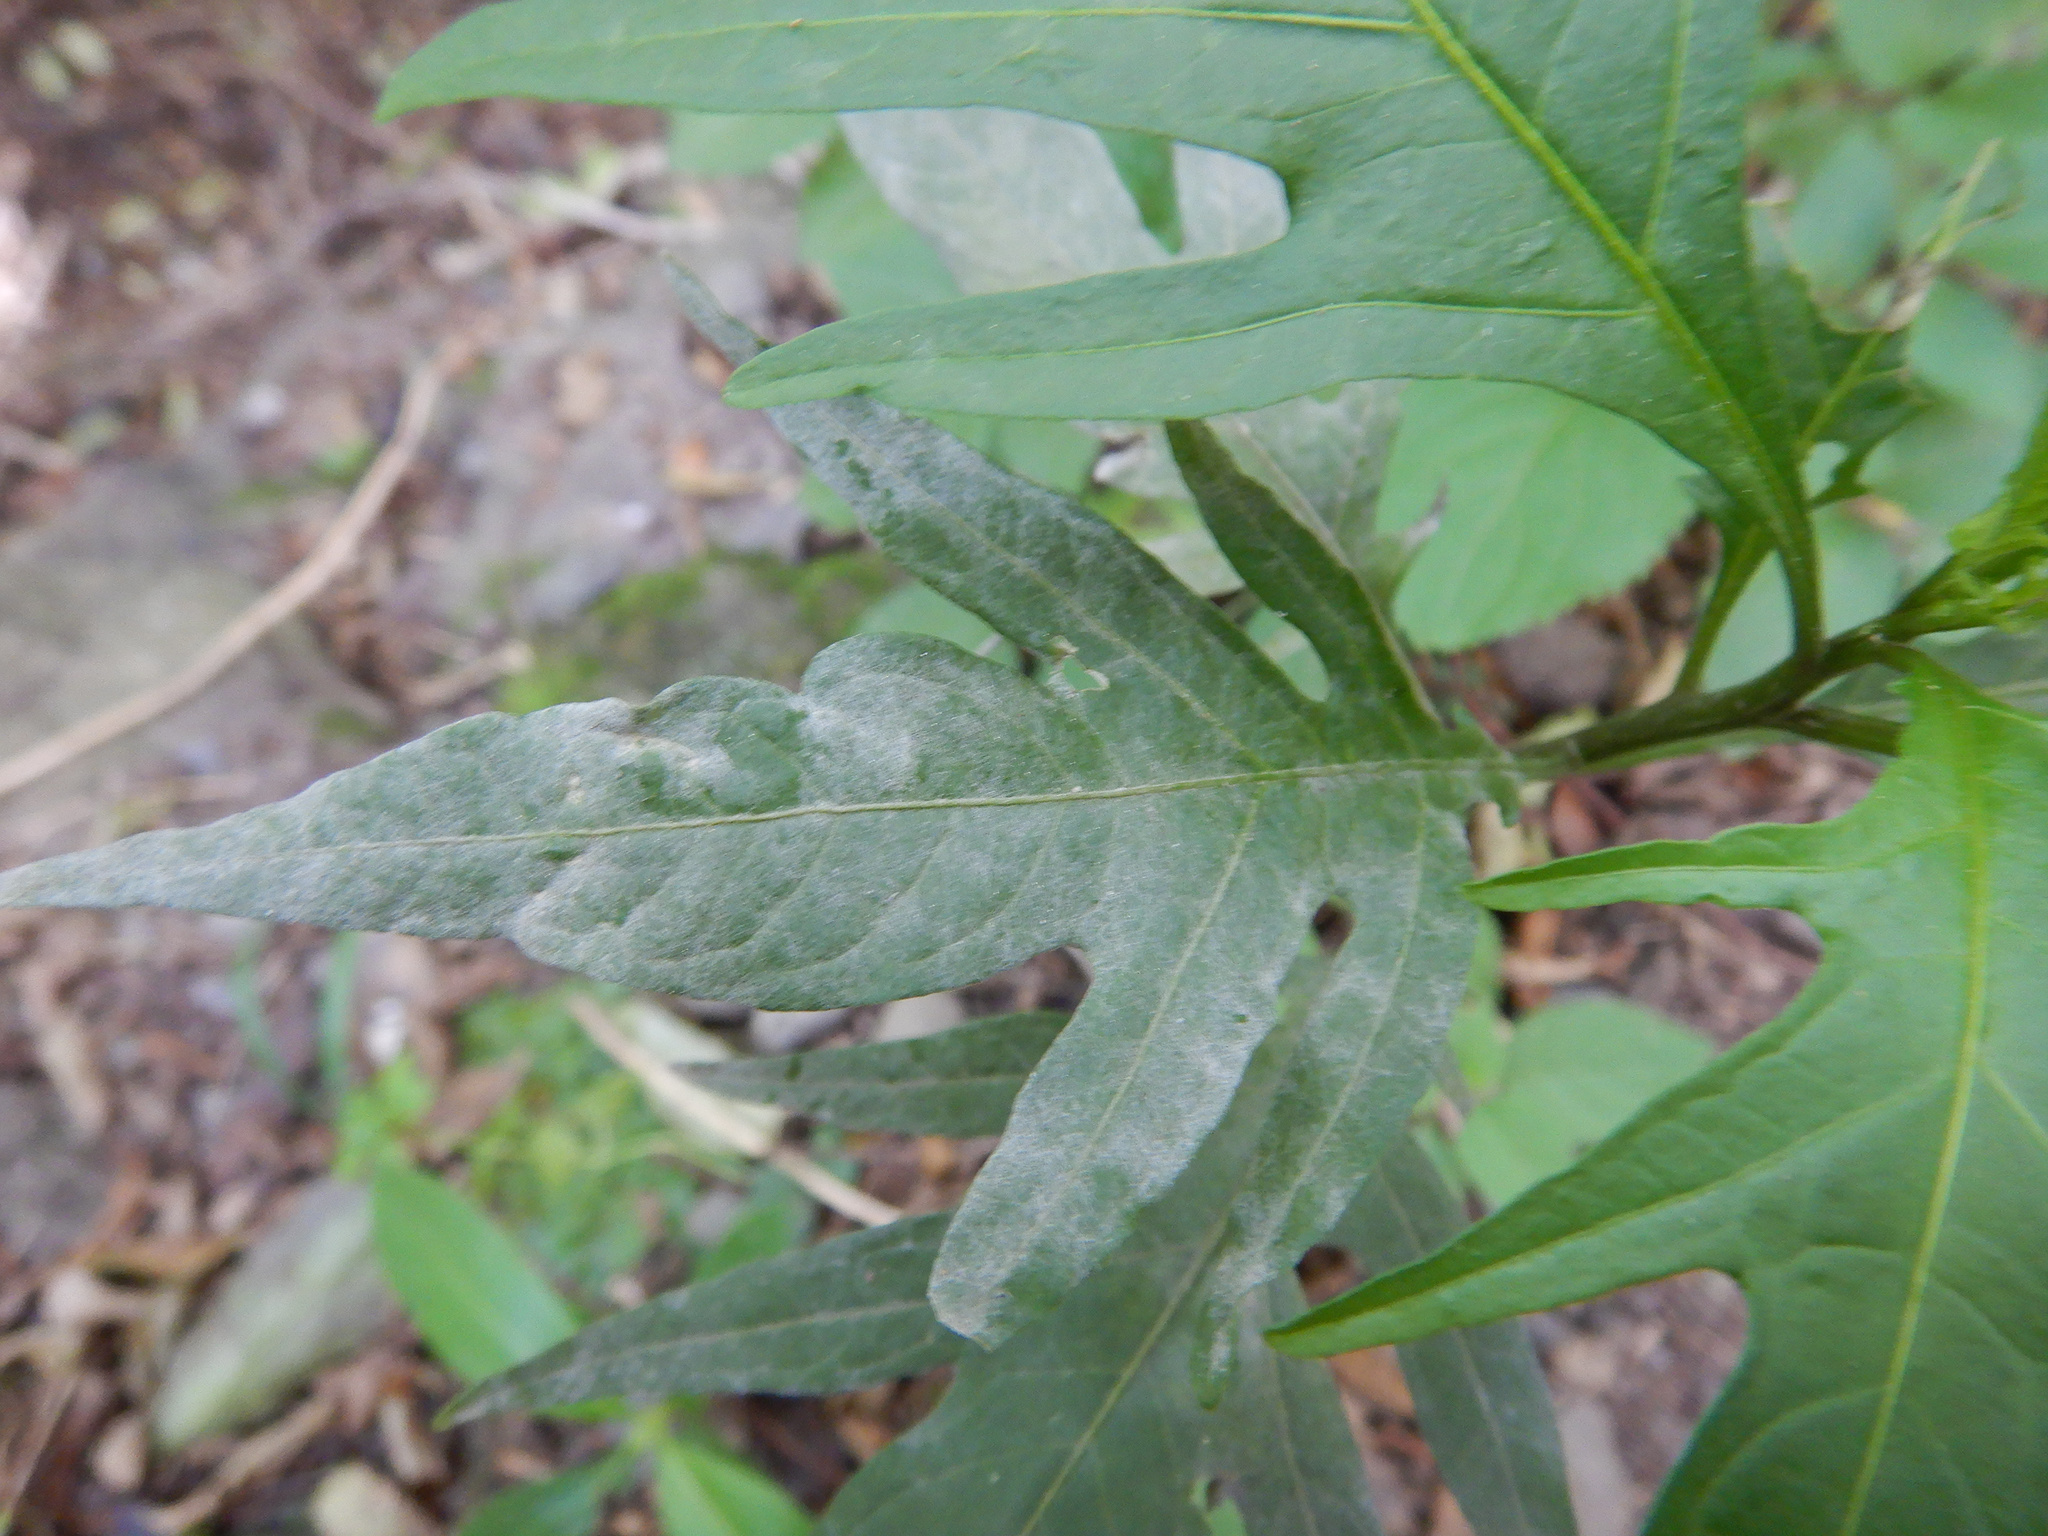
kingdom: Fungi
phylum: Ascomycota
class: Leotiomycetes
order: Helotiales
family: Erysiphaceae
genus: Golovinomyces
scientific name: Golovinomyces longipes
